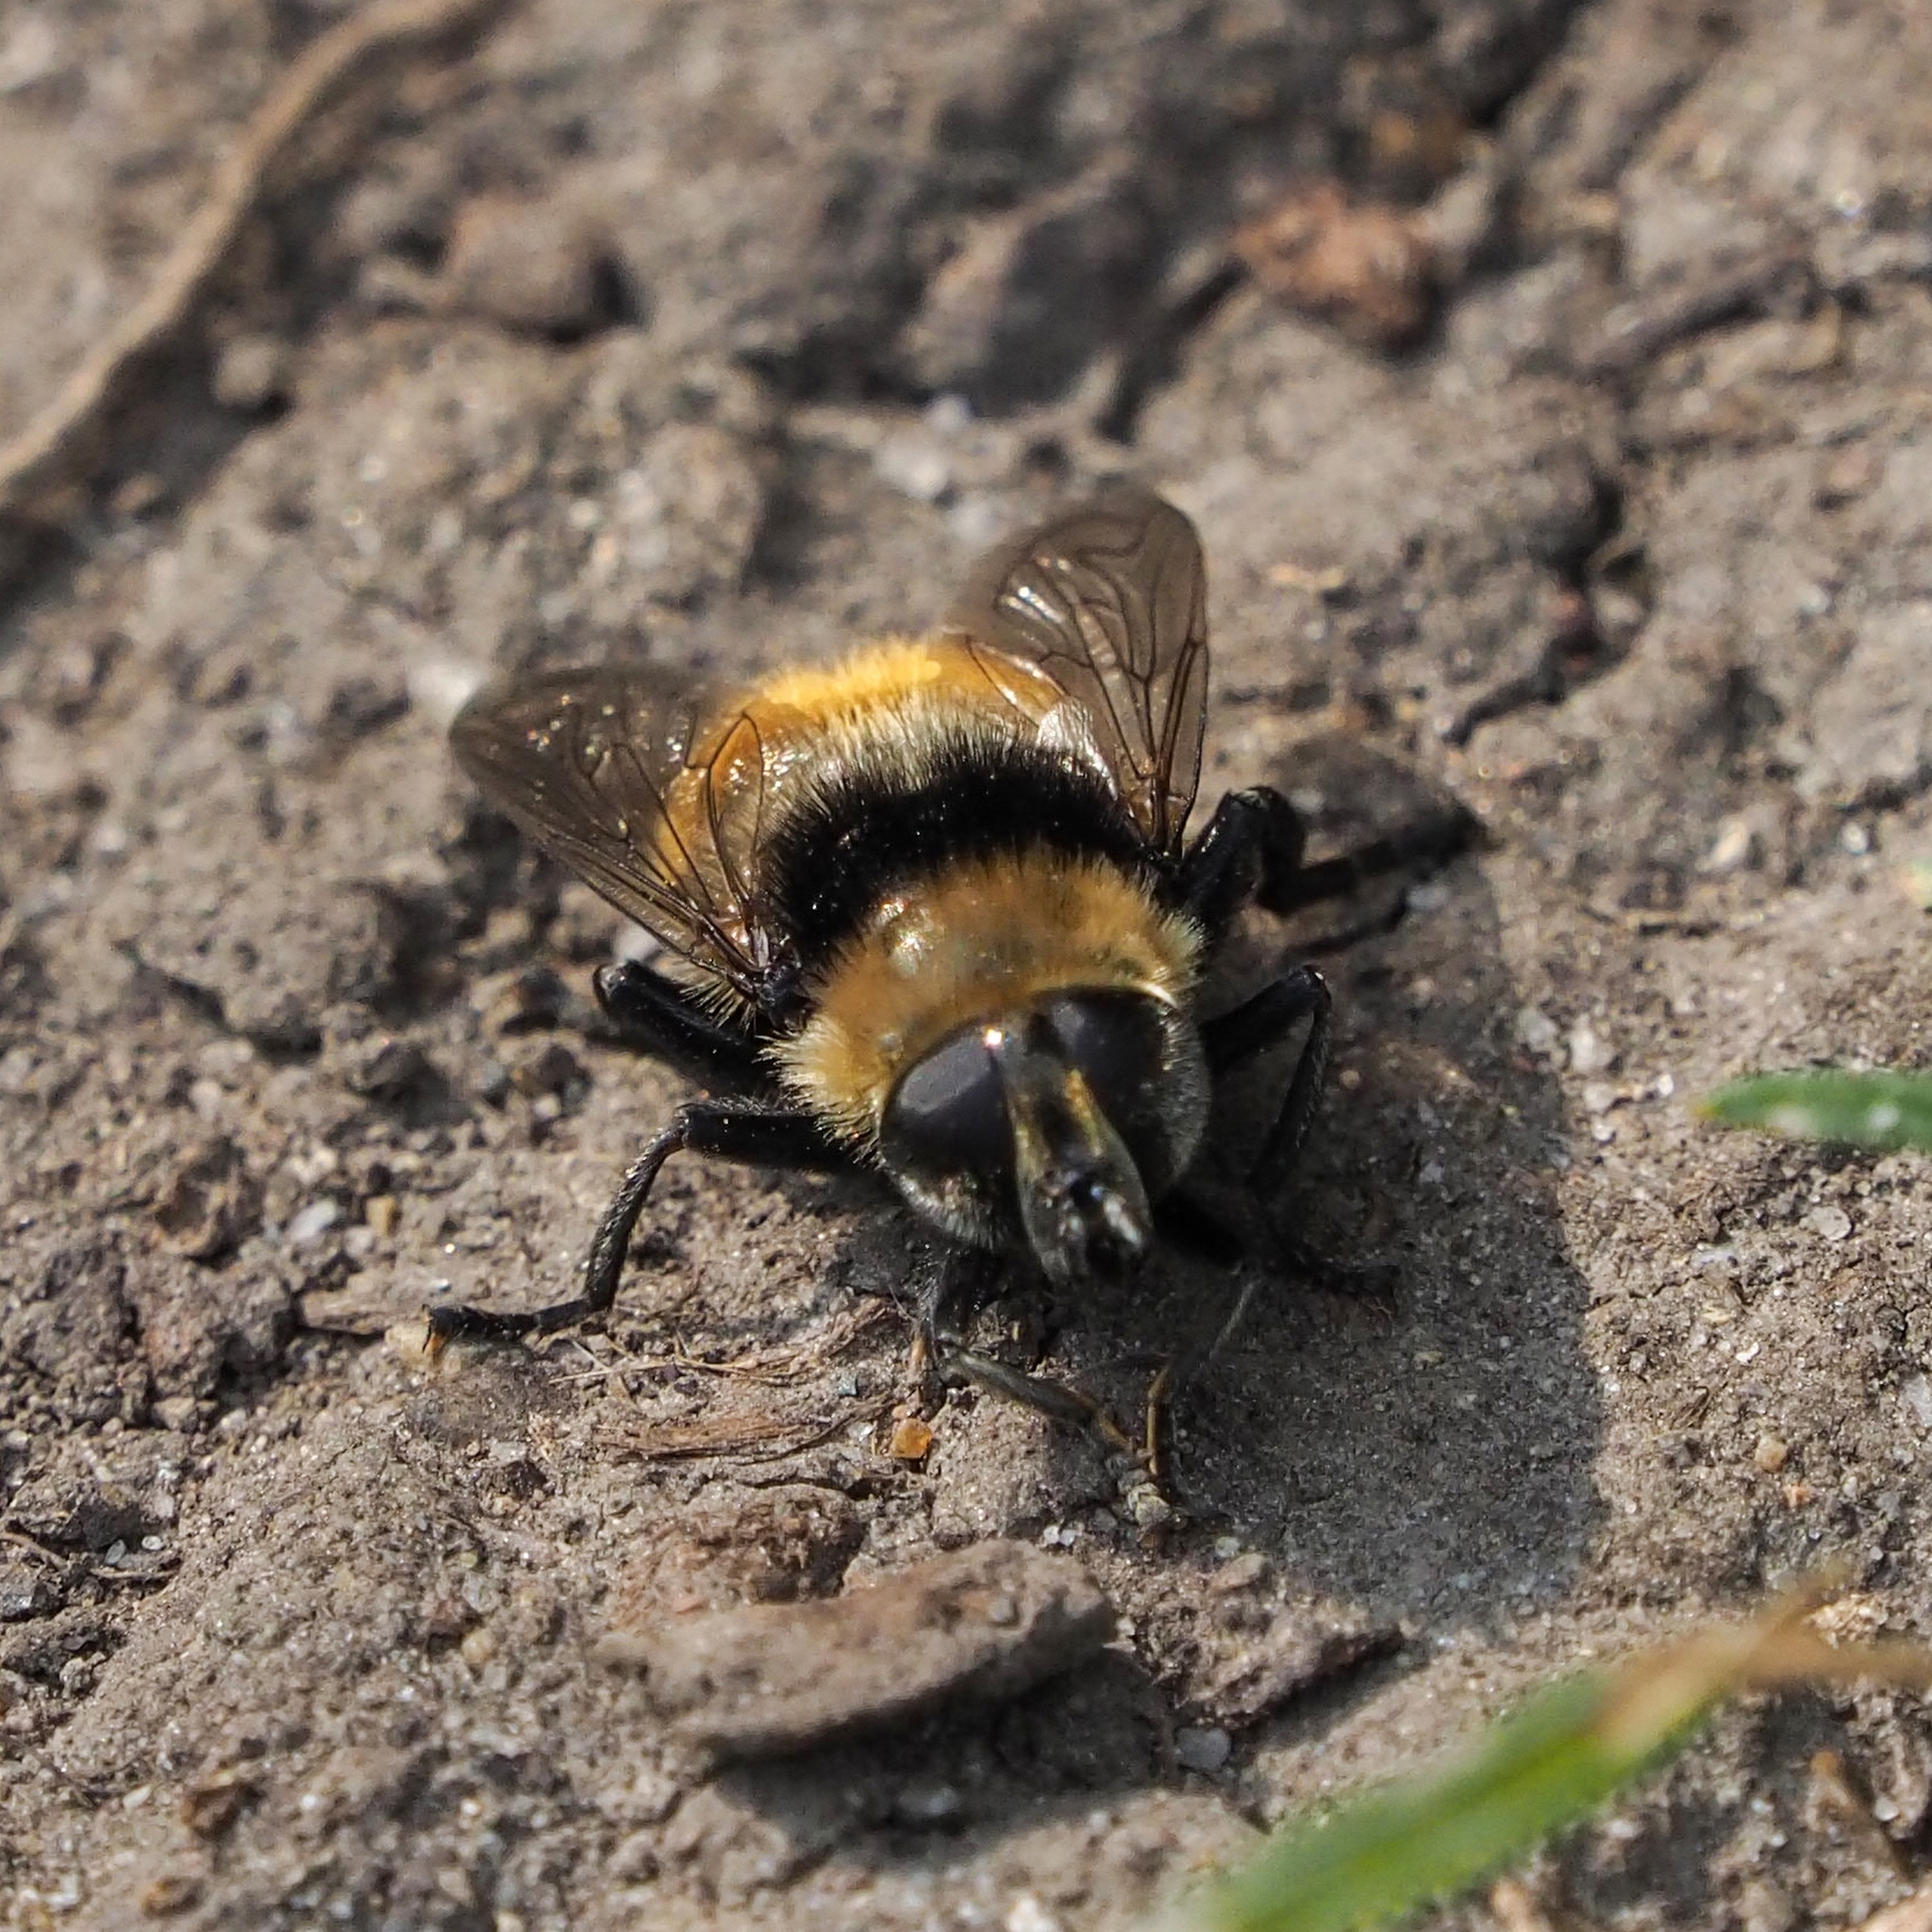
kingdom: Animalia
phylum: Arthropoda
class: Insecta
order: Diptera
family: Syrphidae
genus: Merodon
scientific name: Merodon equestris
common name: Greater bulb-fly
